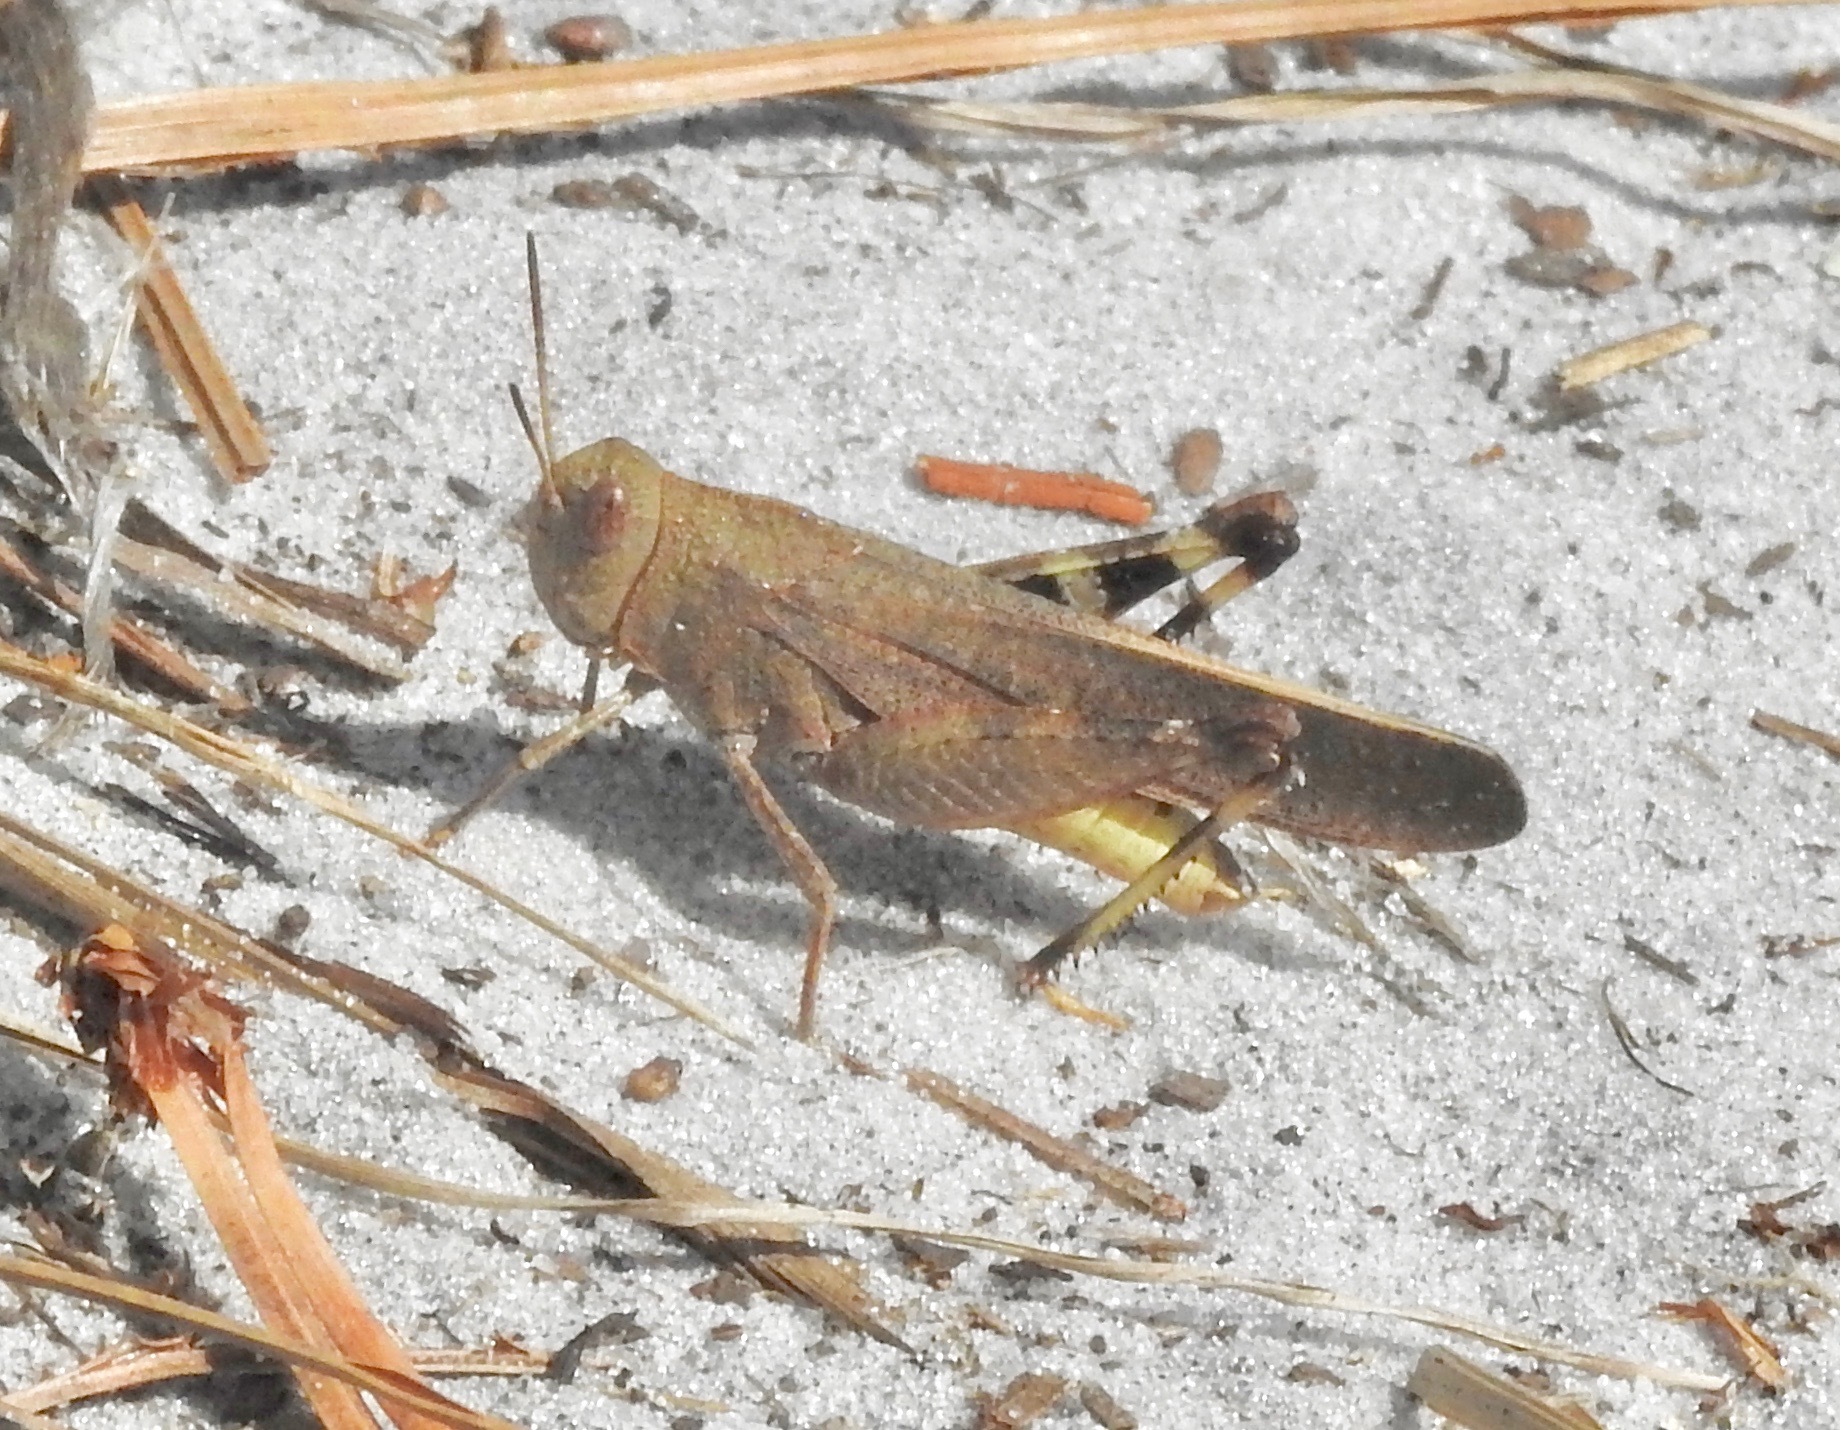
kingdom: Animalia
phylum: Arthropoda
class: Insecta
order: Orthoptera
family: Acrididae
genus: Arphia
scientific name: Arphia granulata
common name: Southern yellow-winged grasshopper
